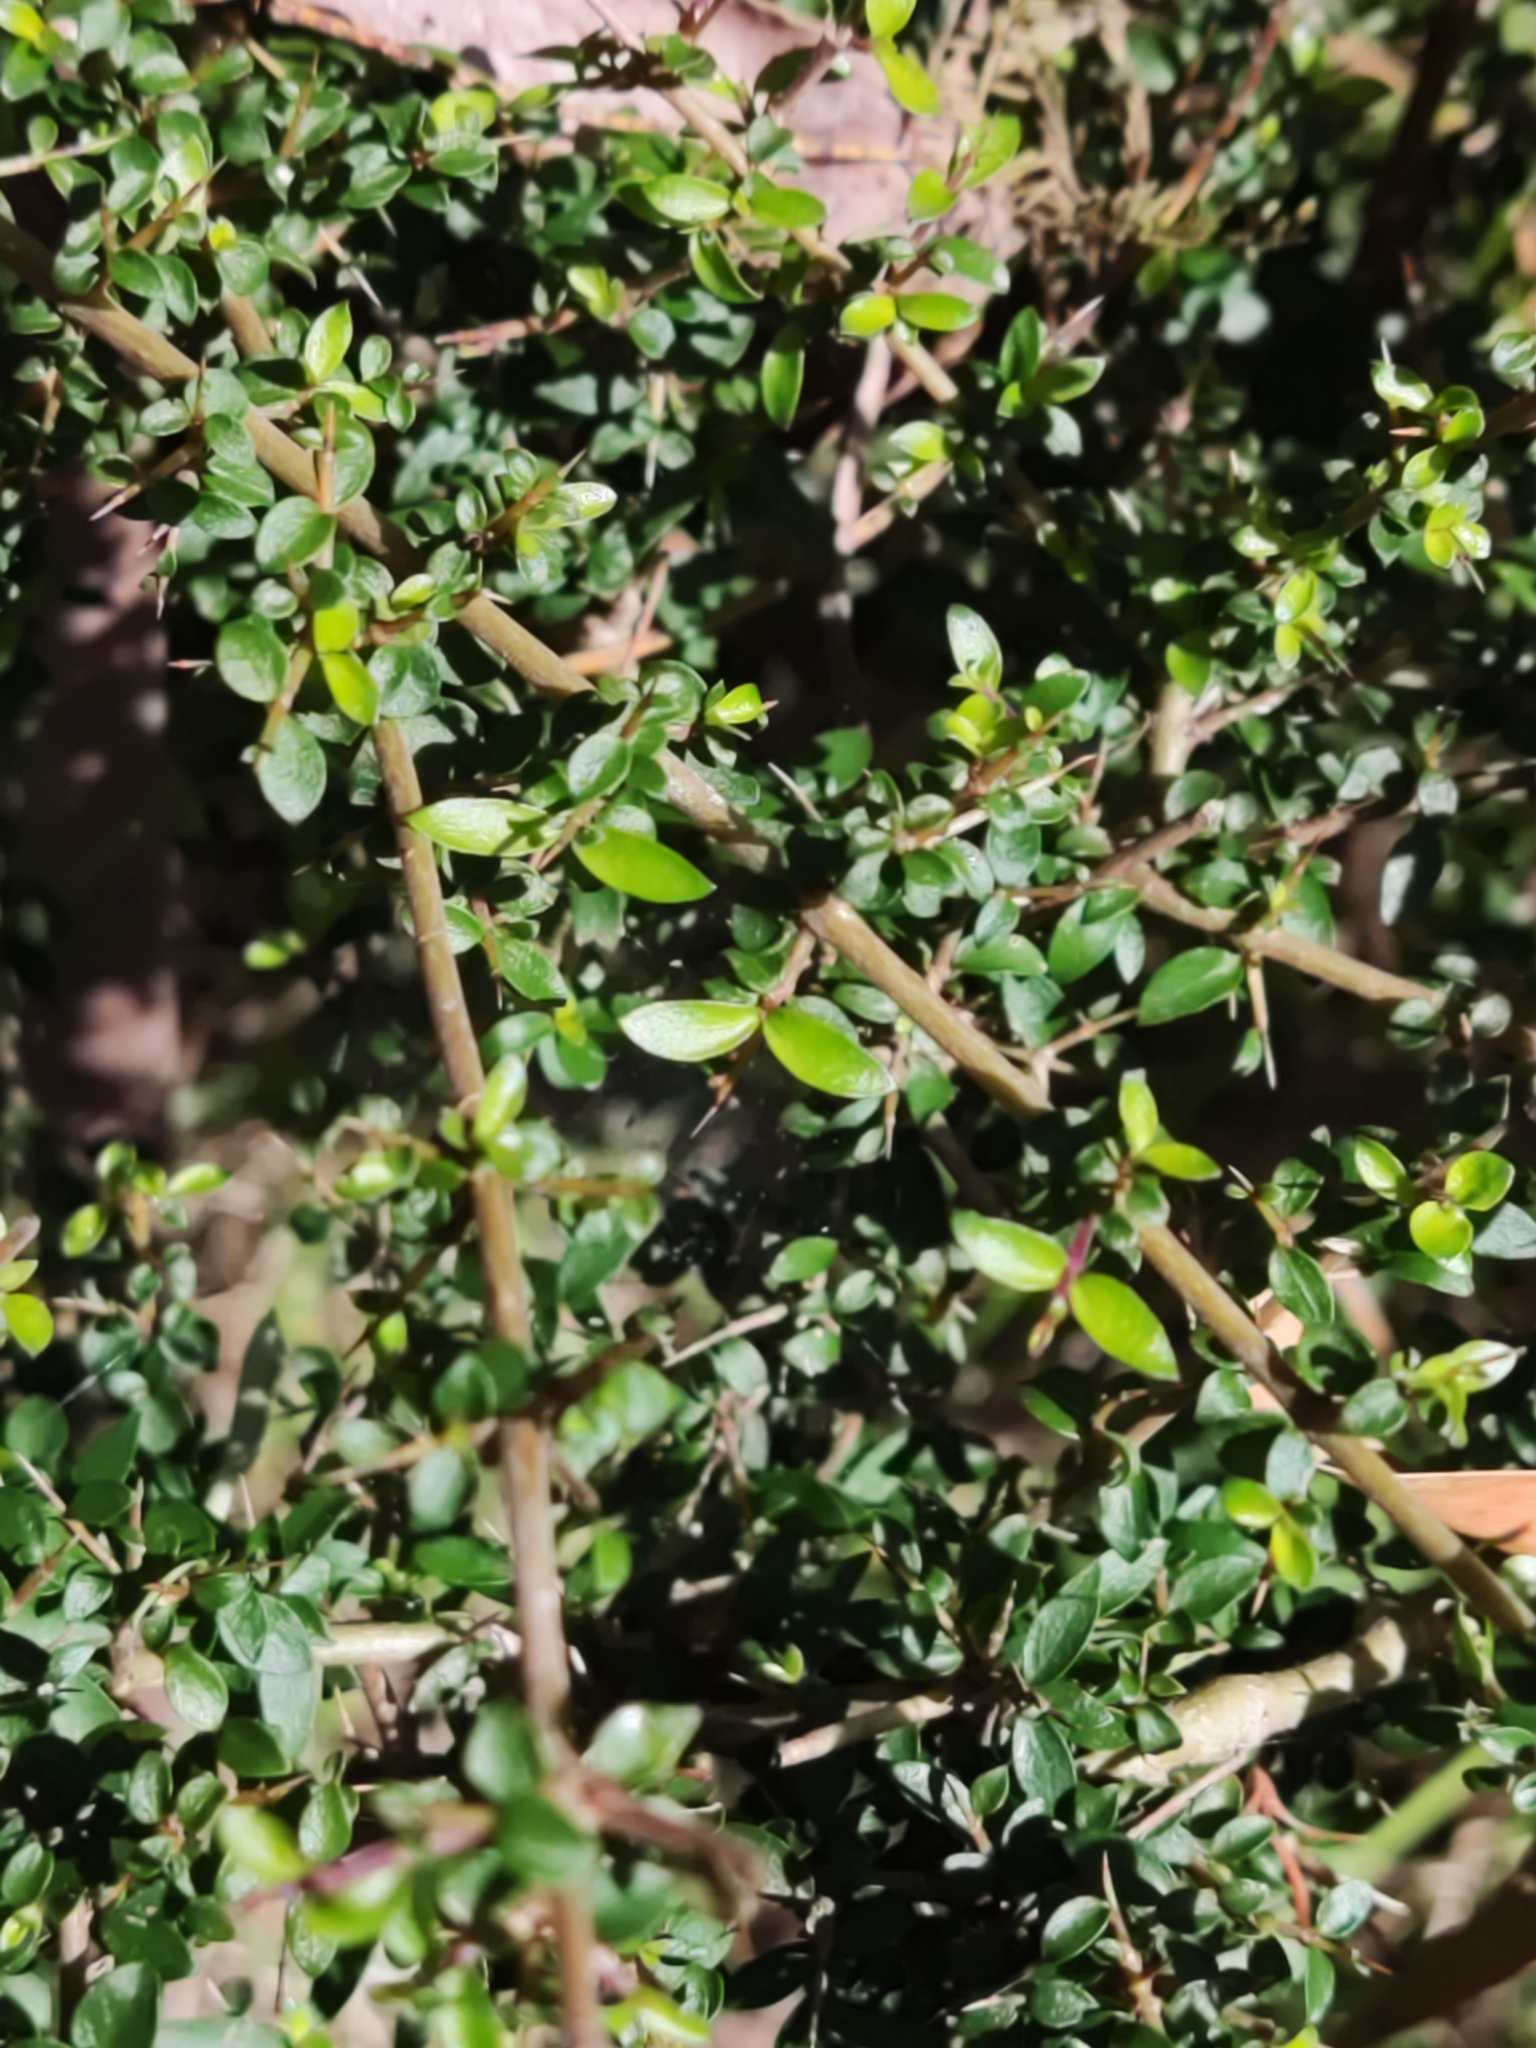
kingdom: Plantae
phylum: Tracheophyta
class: Magnoliopsida
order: Gentianales
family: Rubiaceae
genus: Coprosma
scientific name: Coprosma quadrifida
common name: Prickly currantbush
